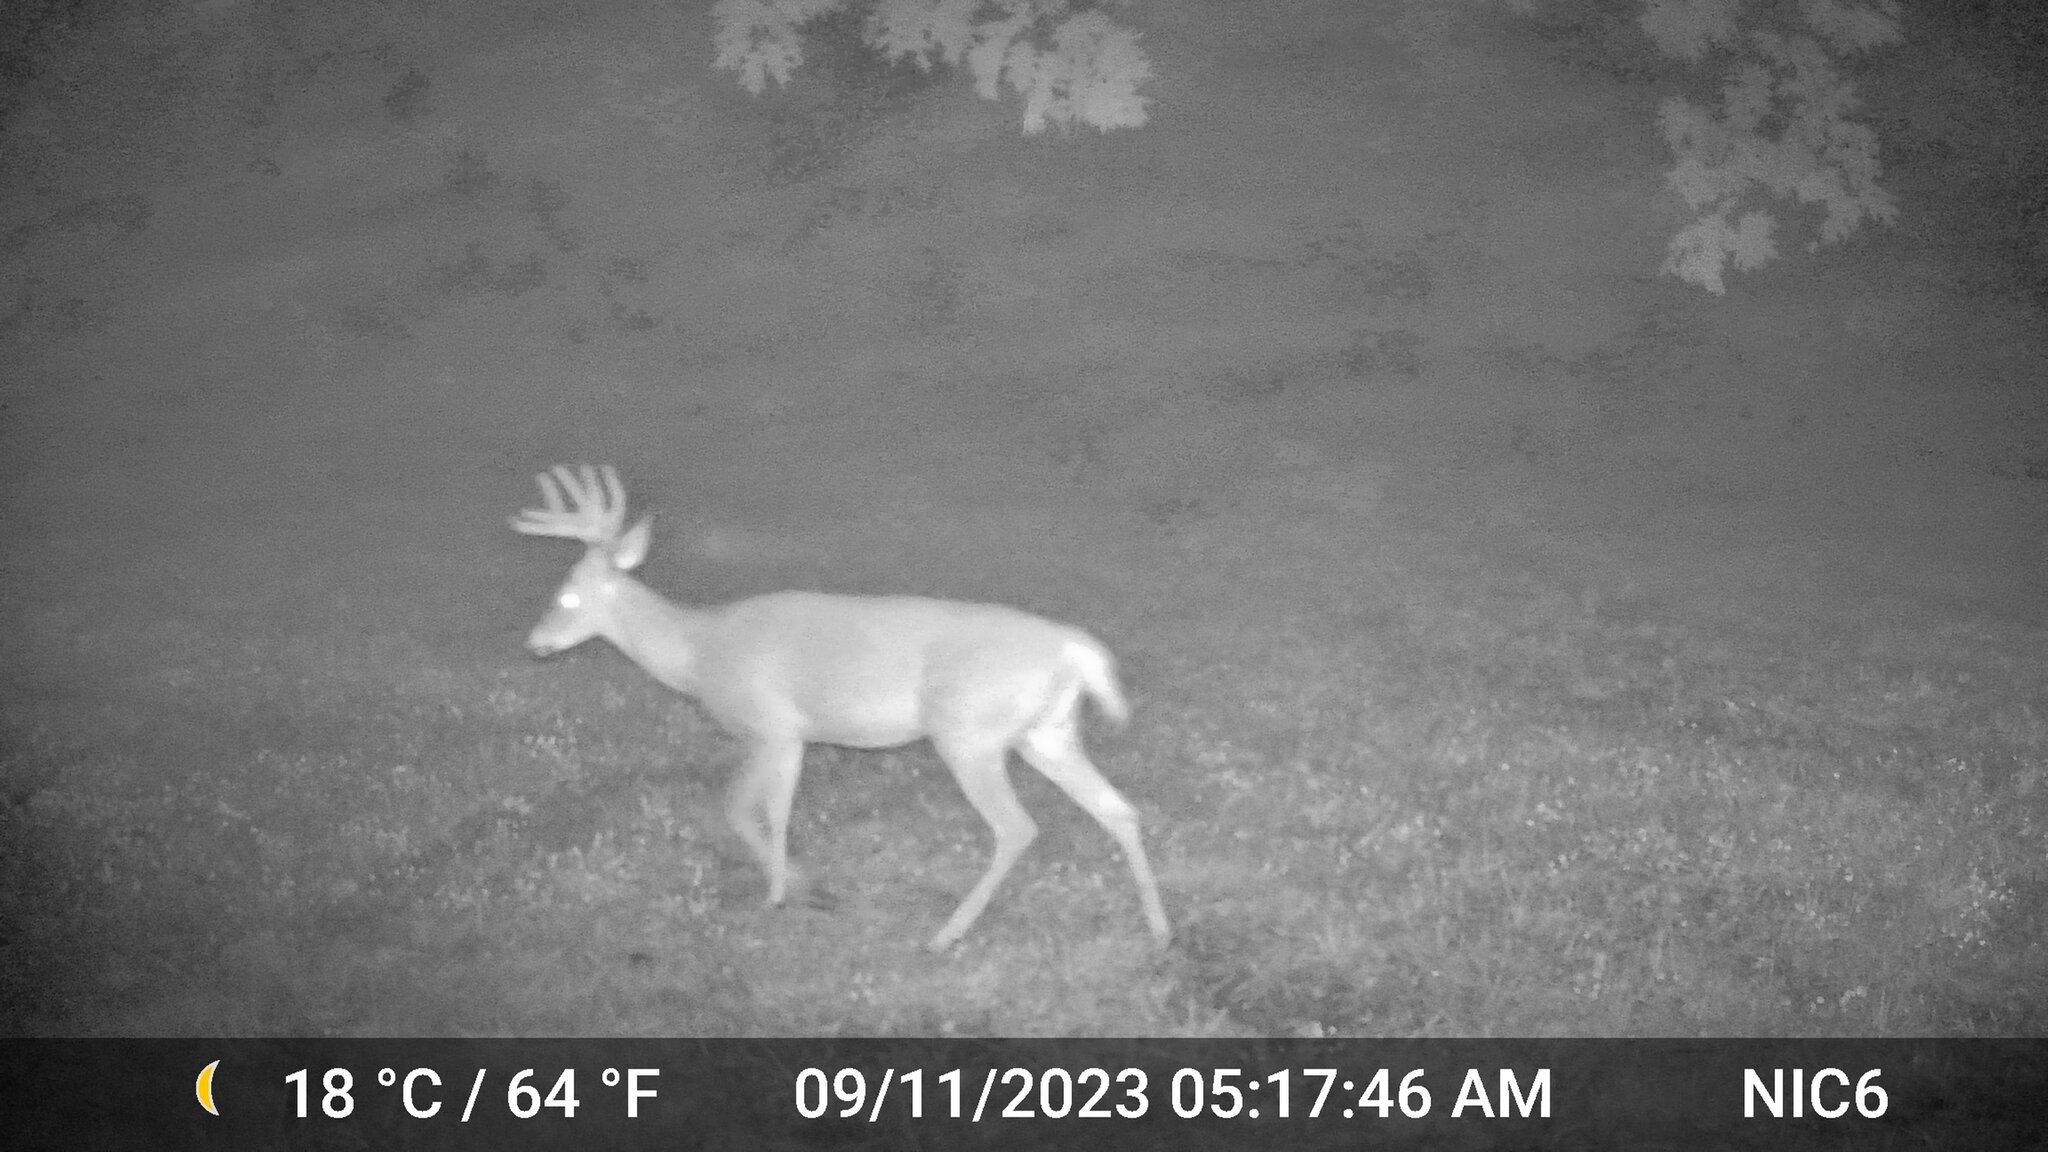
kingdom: Animalia
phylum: Chordata
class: Mammalia
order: Artiodactyla
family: Cervidae
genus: Odocoileus
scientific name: Odocoileus virginianus
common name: White-tailed deer
